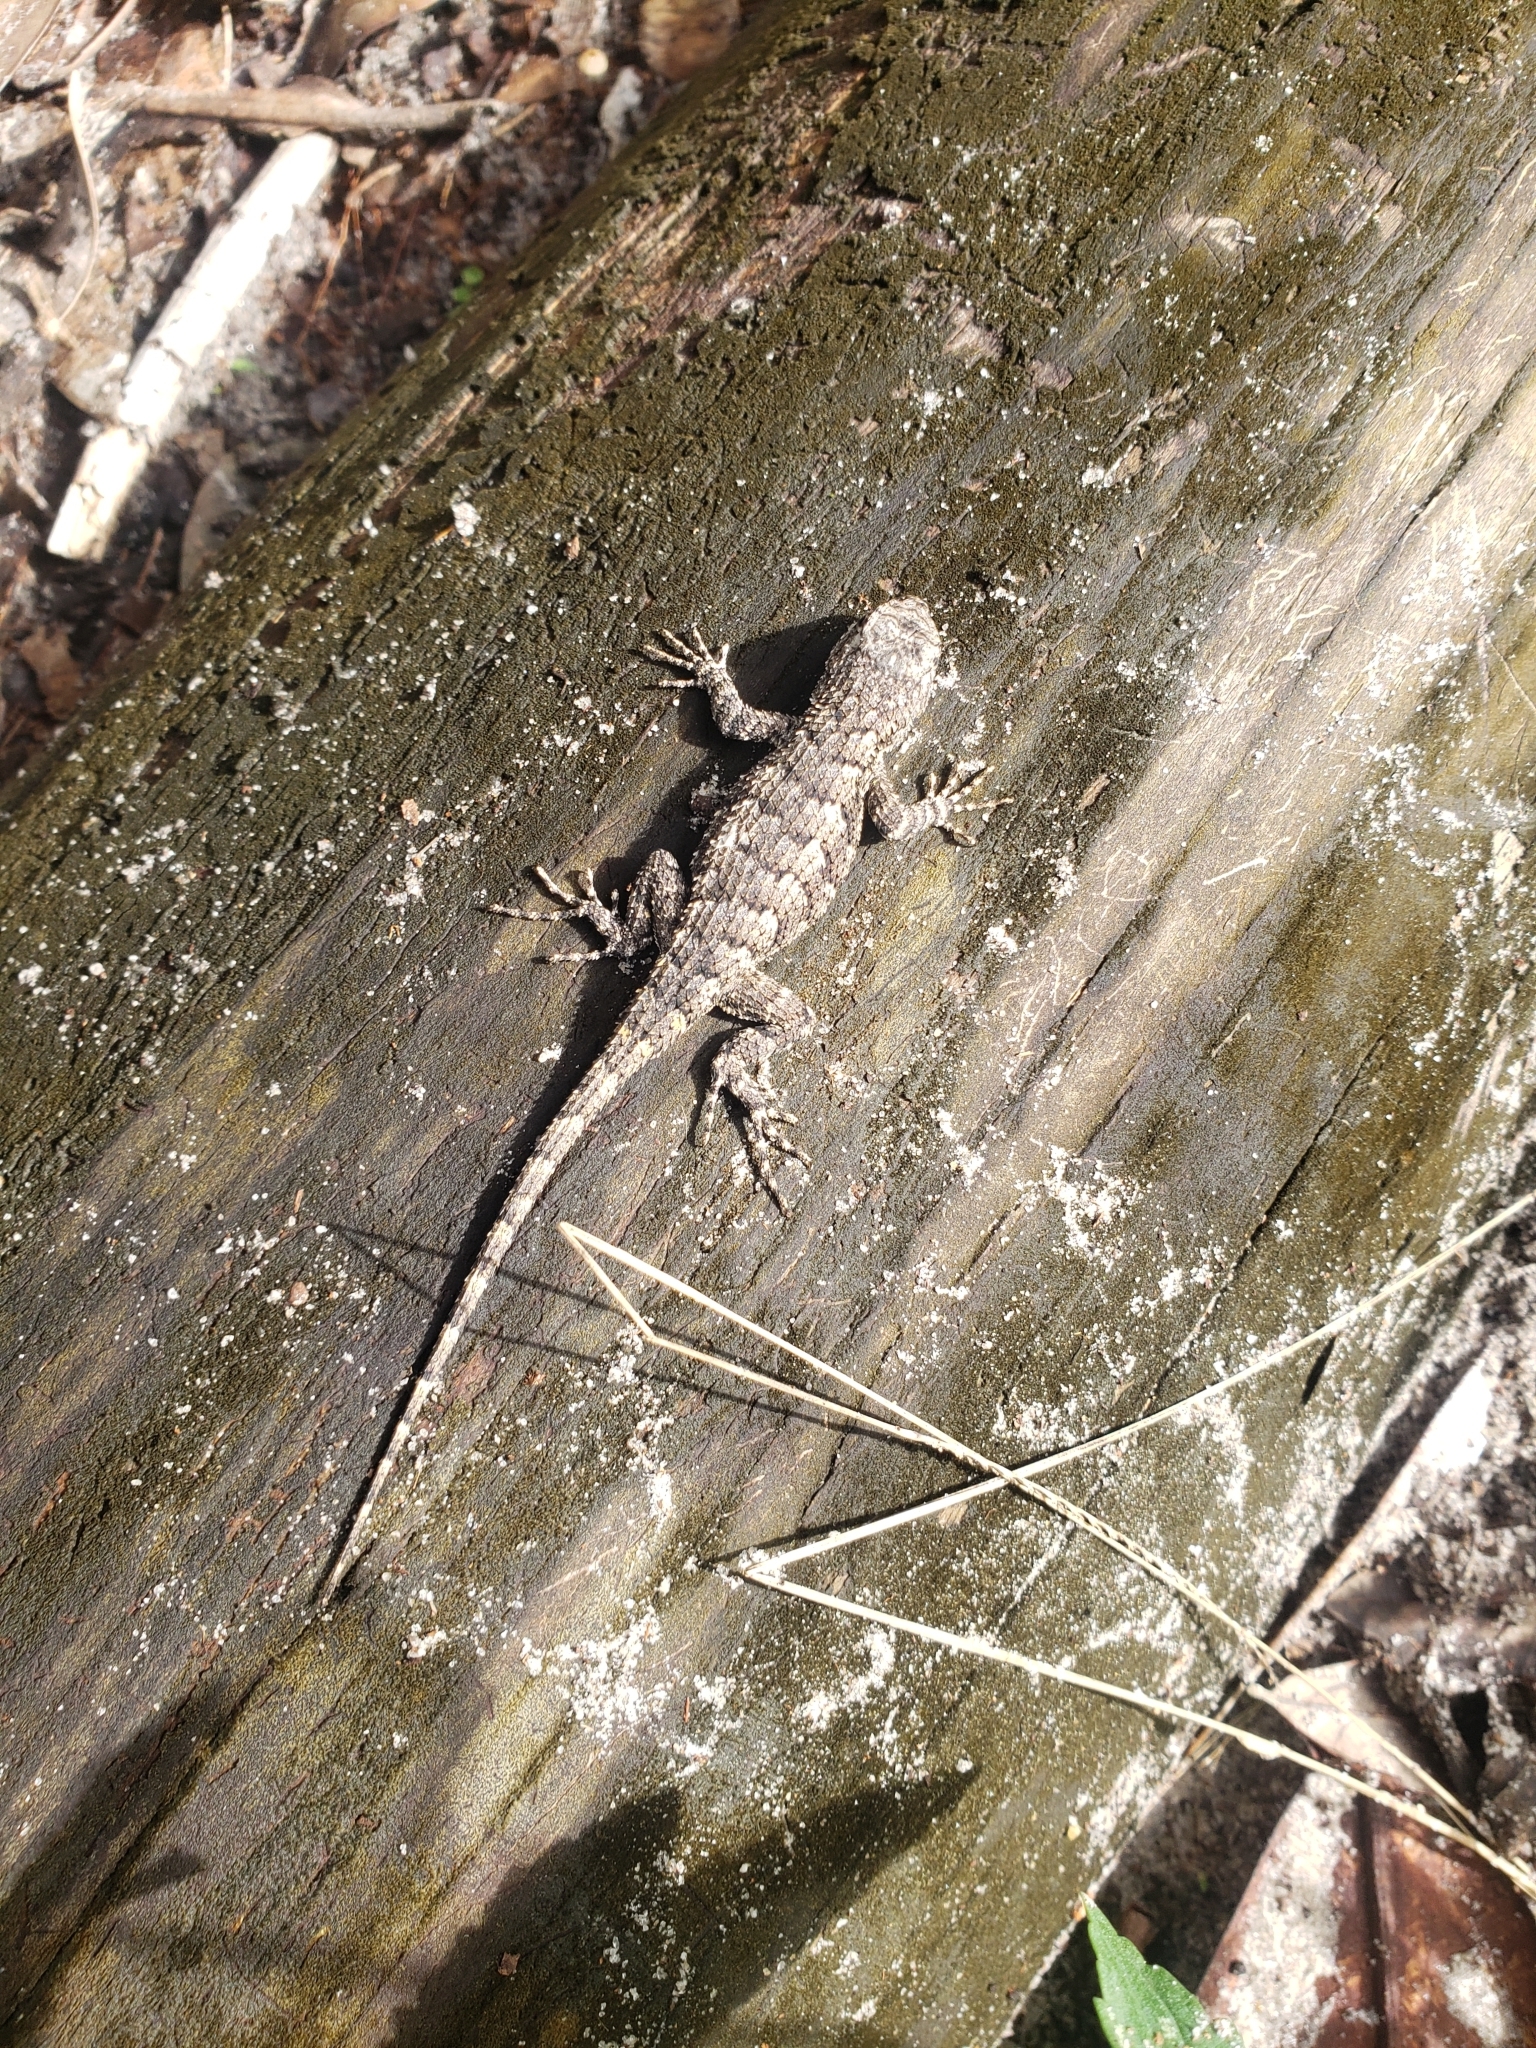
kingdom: Animalia
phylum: Chordata
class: Squamata
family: Phrynosomatidae
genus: Sceloporus
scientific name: Sceloporus undulatus
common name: Eastern fence lizard
